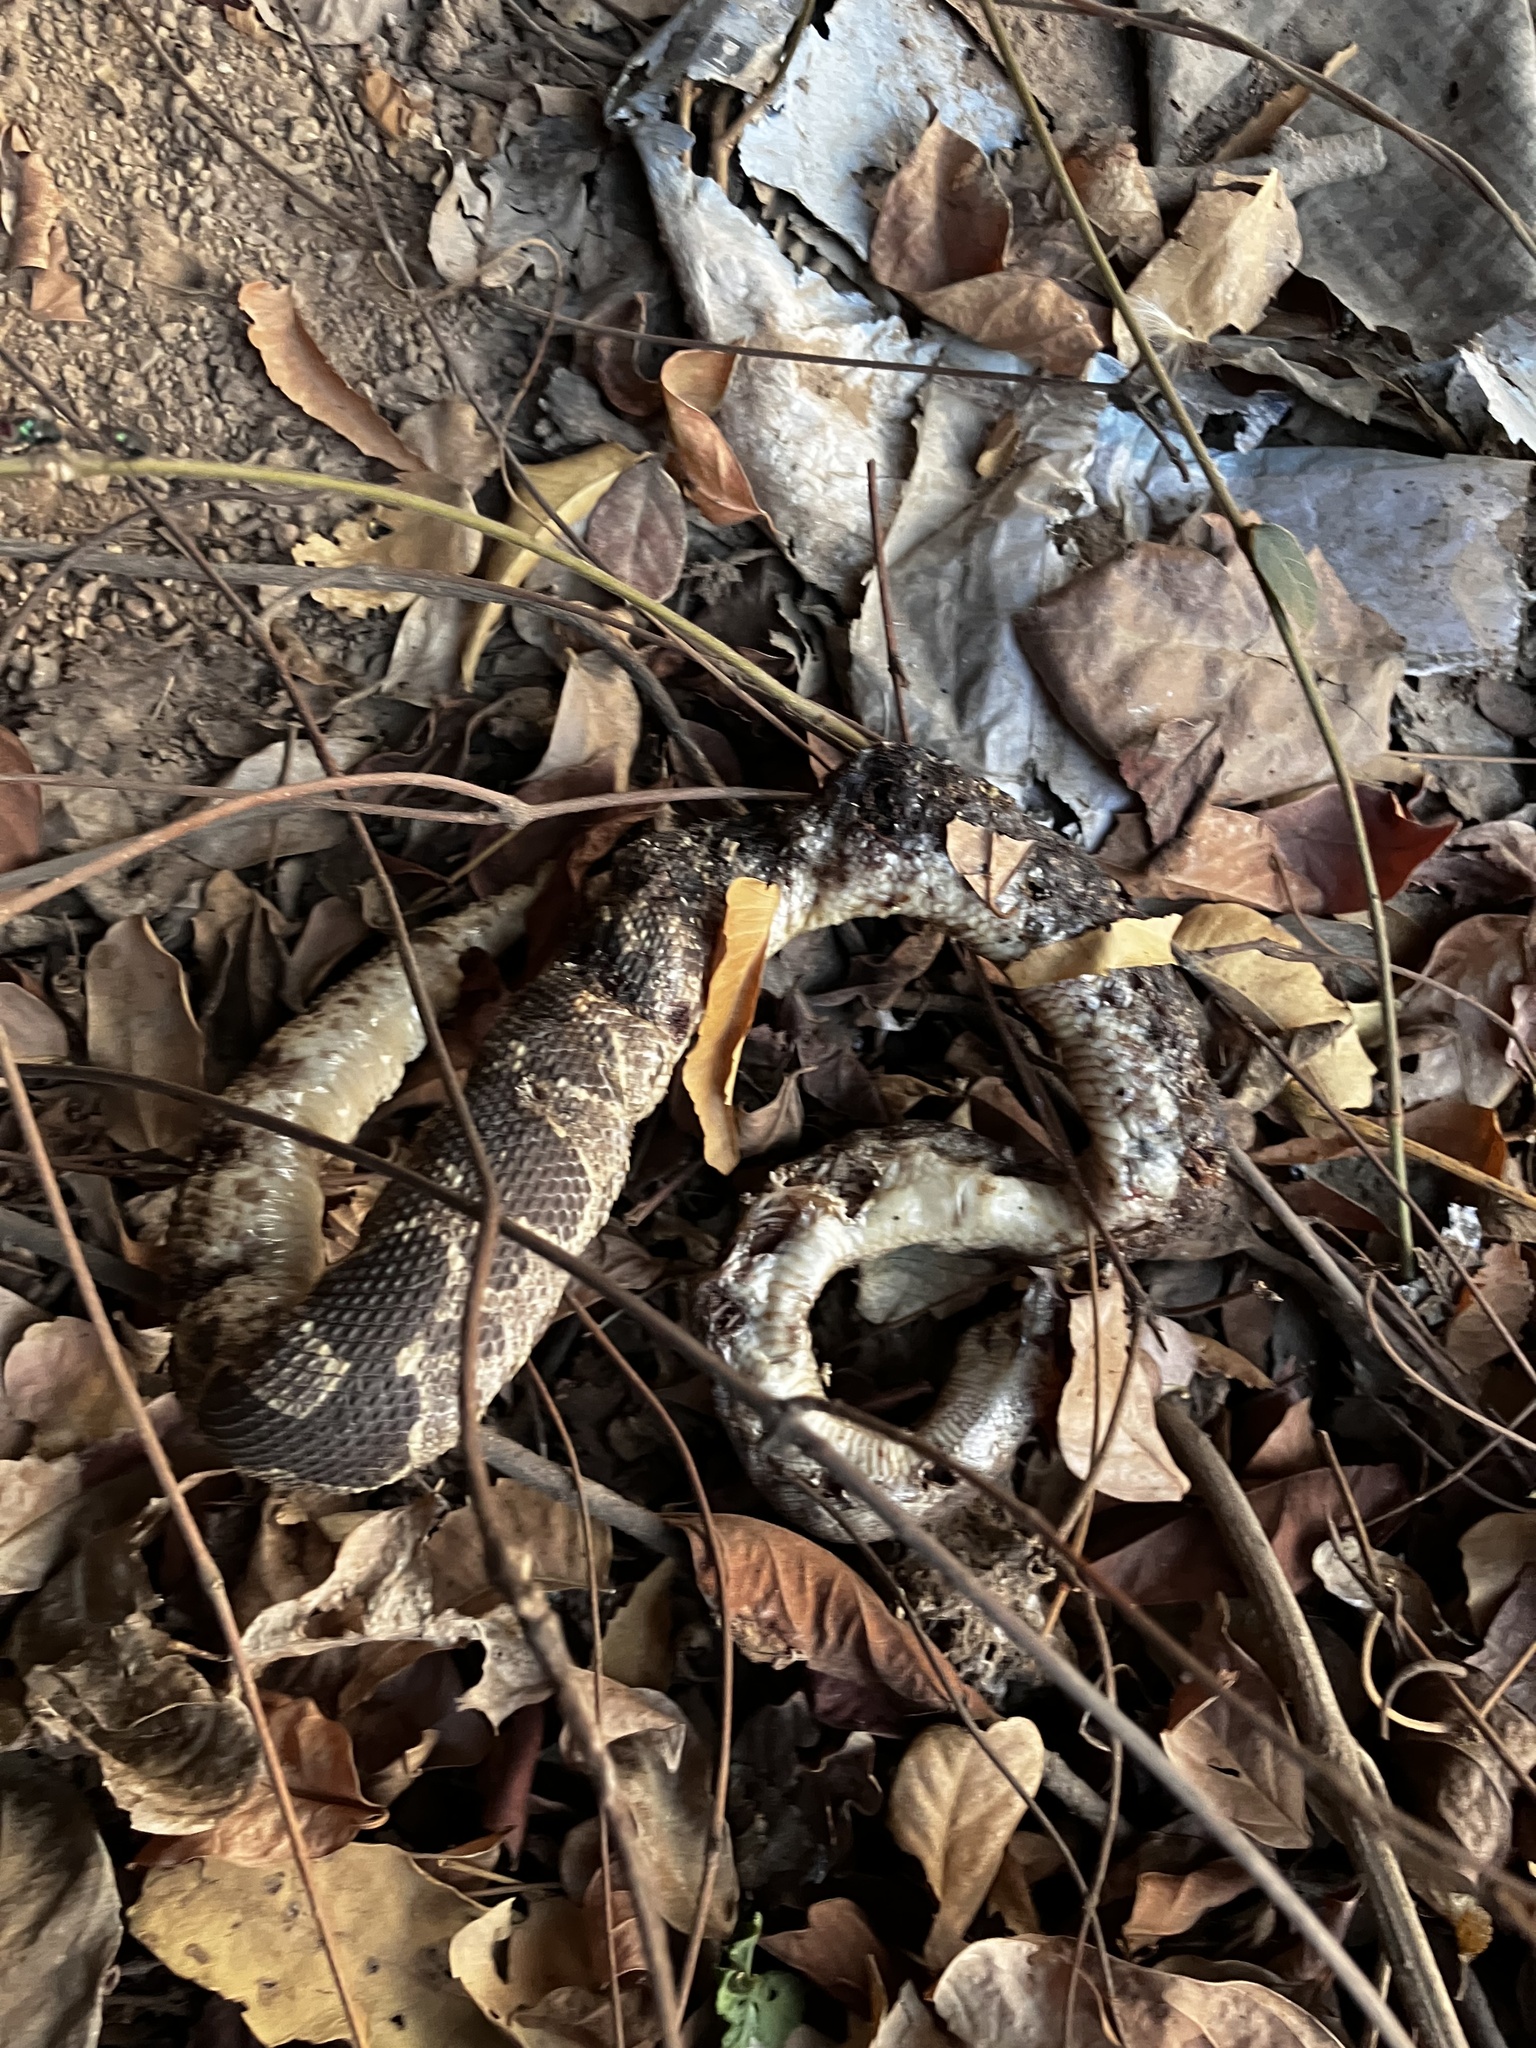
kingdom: Animalia
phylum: Chordata
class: Squamata
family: Boidae
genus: Eryx
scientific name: Eryx conicus
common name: Rough-tailed sand boa
